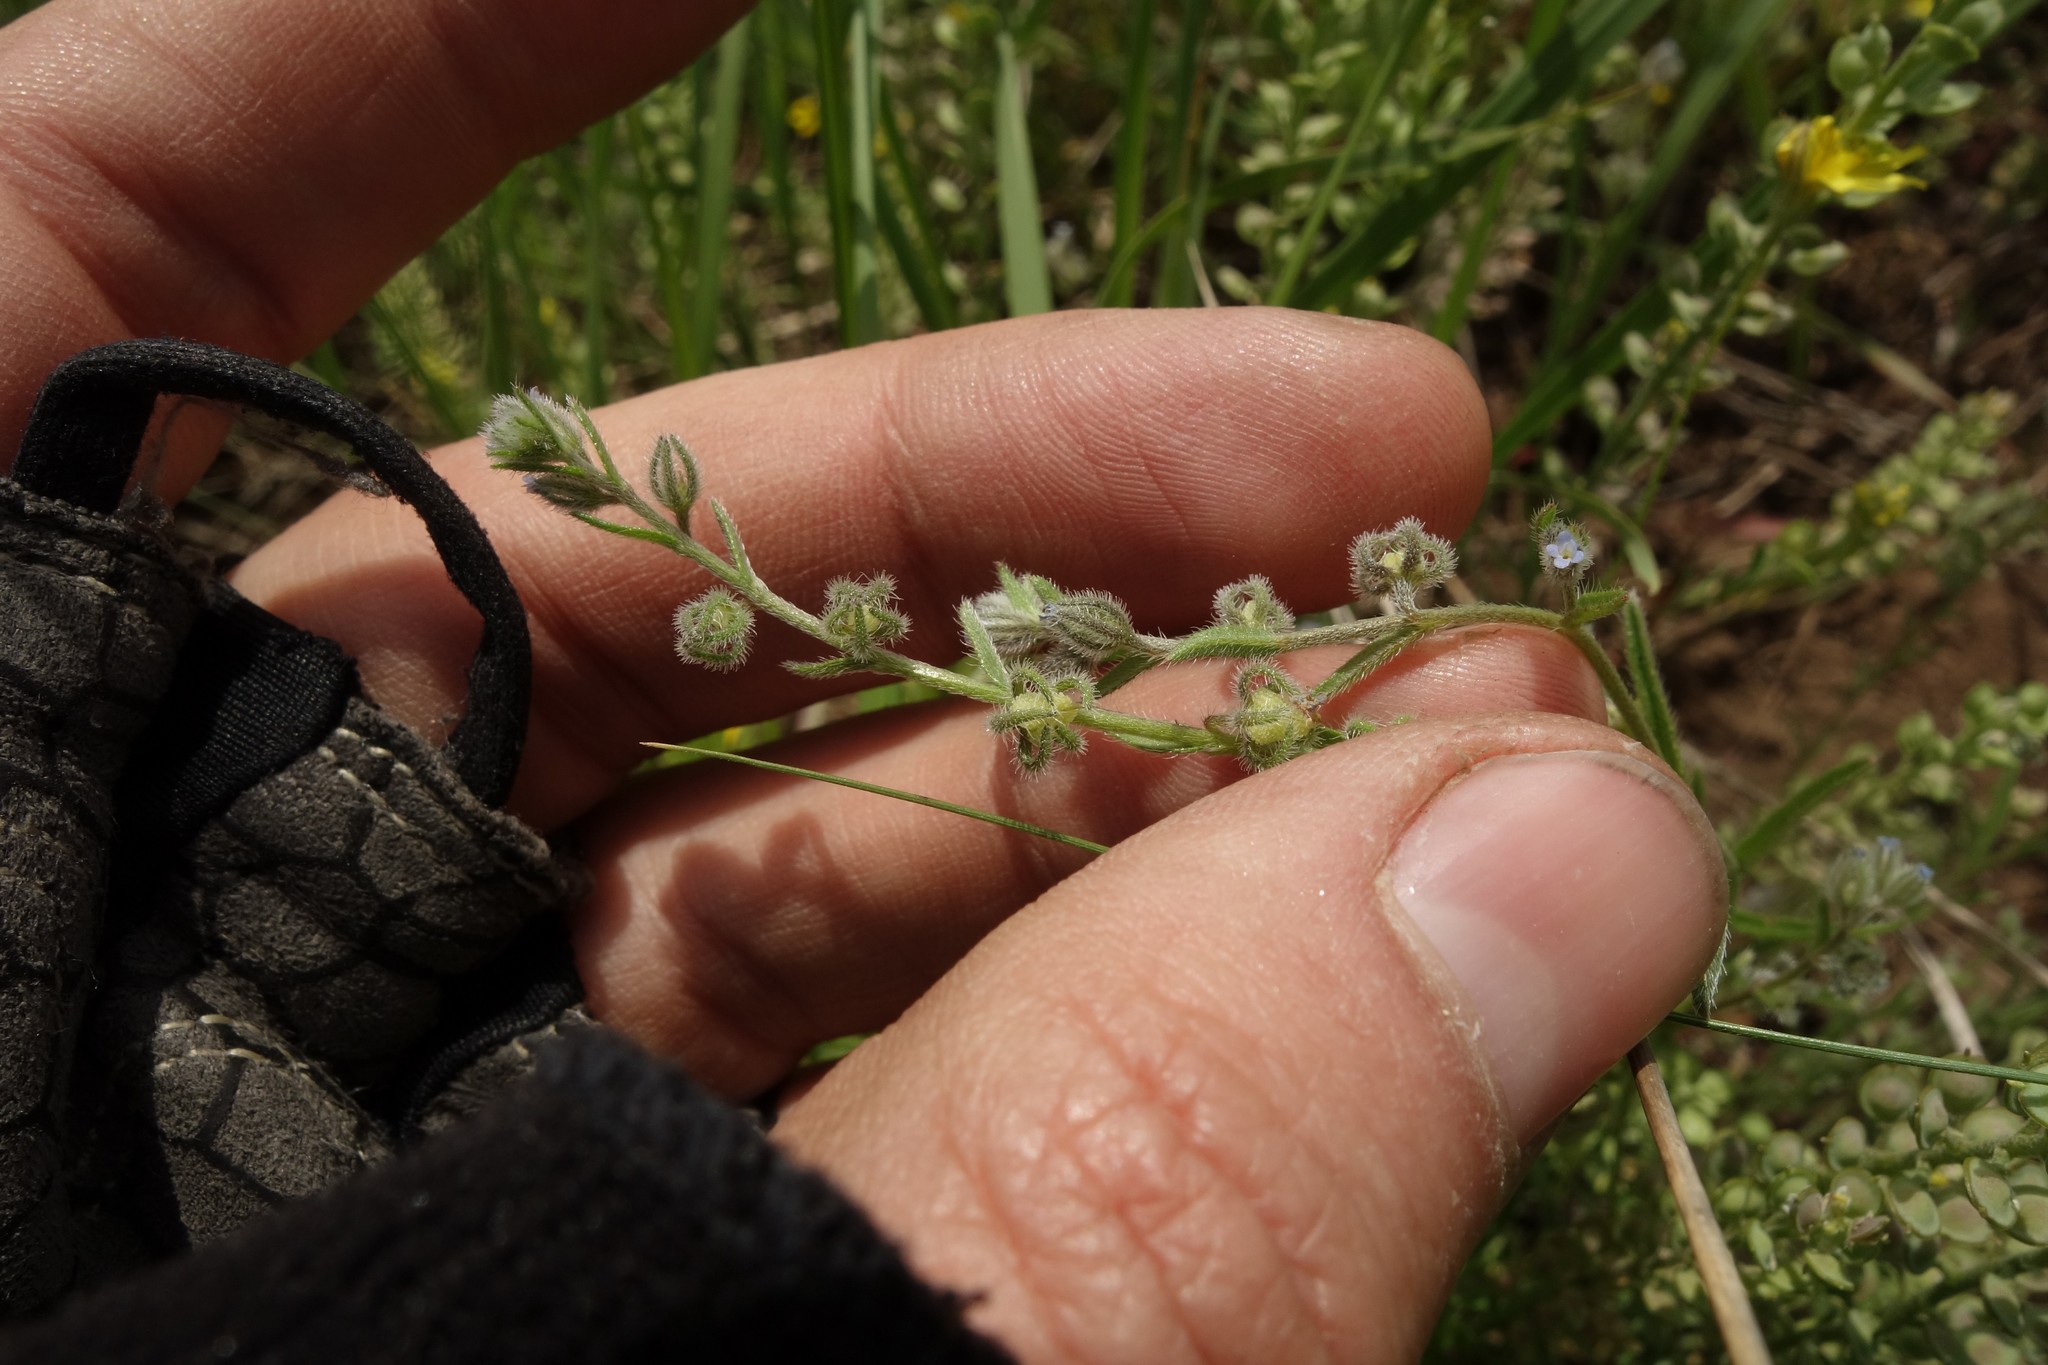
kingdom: Plantae
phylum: Tracheophyta
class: Magnoliopsida
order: Boraginales
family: Boraginaceae
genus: Rochelia
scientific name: Rochelia retorta
